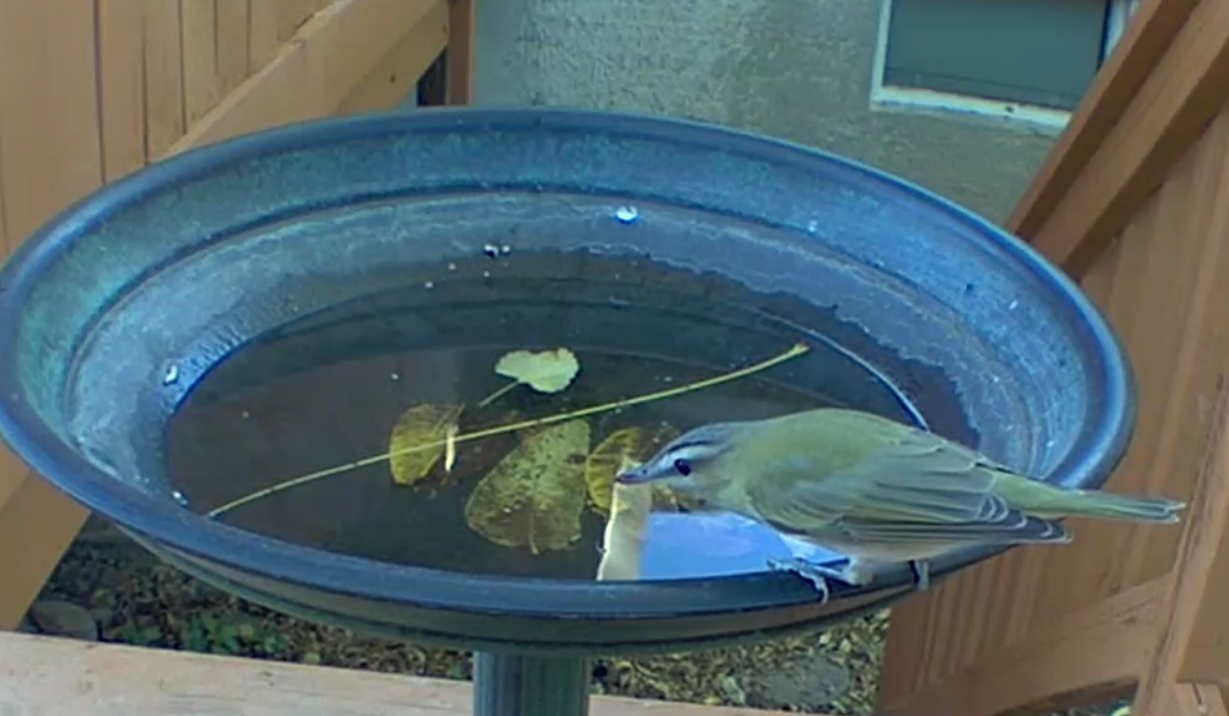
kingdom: Animalia
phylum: Chordata
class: Aves
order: Passeriformes
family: Vireonidae
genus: Vireo
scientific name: Vireo olivaceus
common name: Red-eyed vireo
